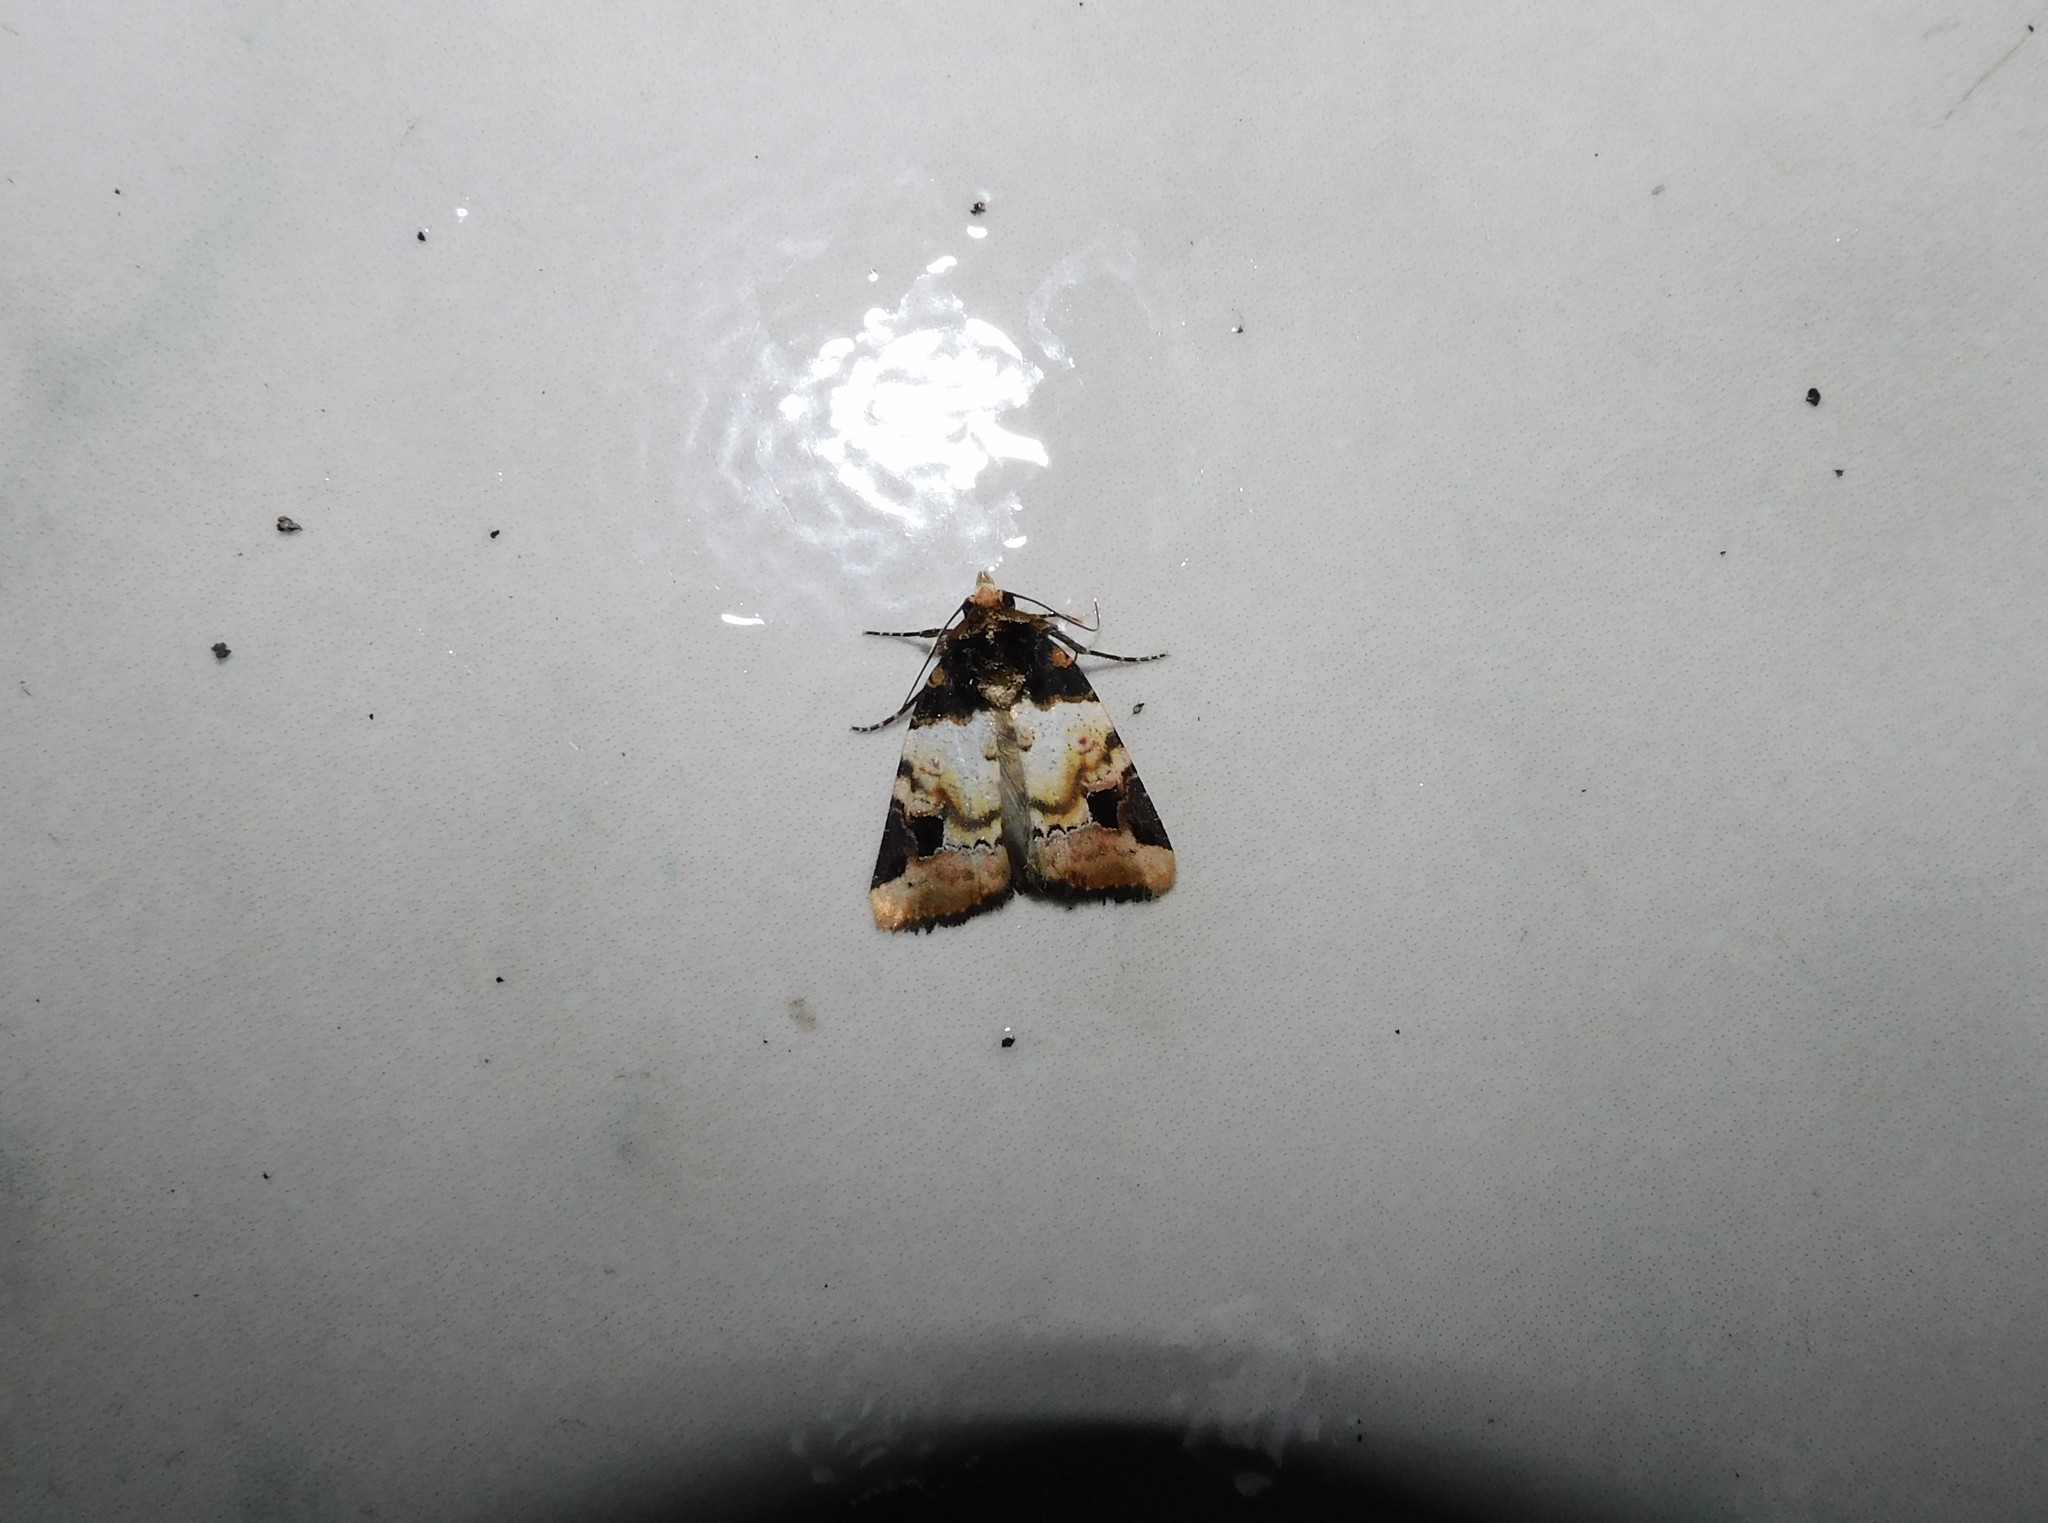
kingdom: Animalia
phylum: Arthropoda
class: Insecta
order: Lepidoptera
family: Noctuidae
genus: Bryolymnia
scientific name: Bryolymnia poasia
